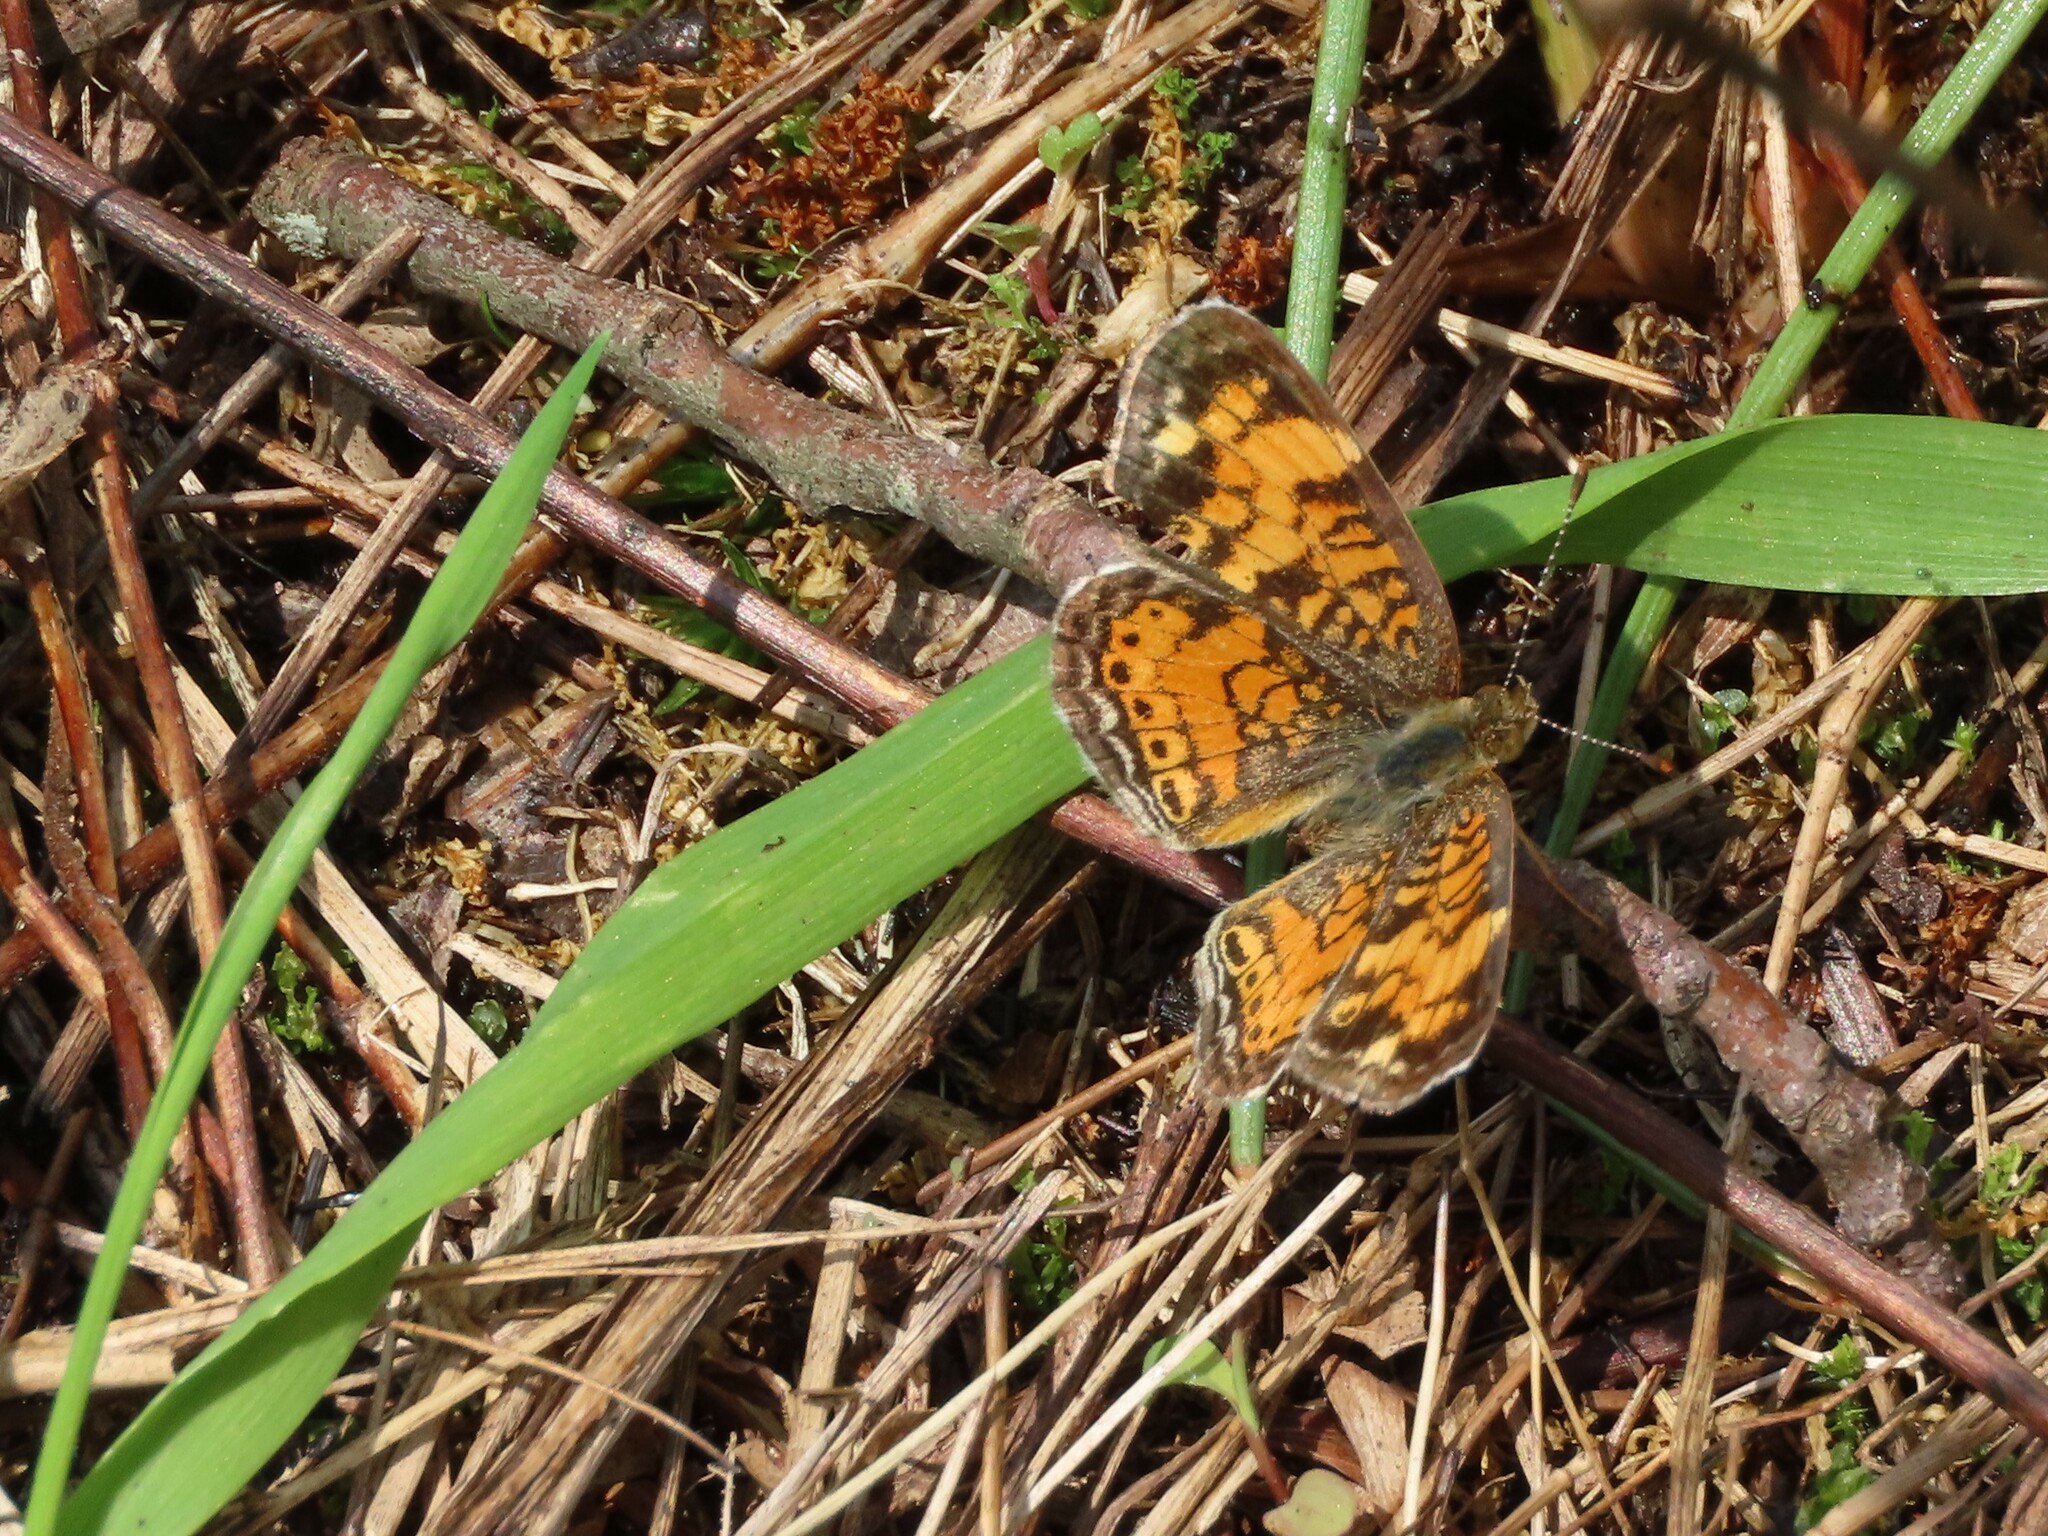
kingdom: Animalia
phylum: Arthropoda
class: Insecta
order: Lepidoptera
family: Nymphalidae
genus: Phyciodes
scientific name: Phyciodes tharos
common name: Pearl crescent
